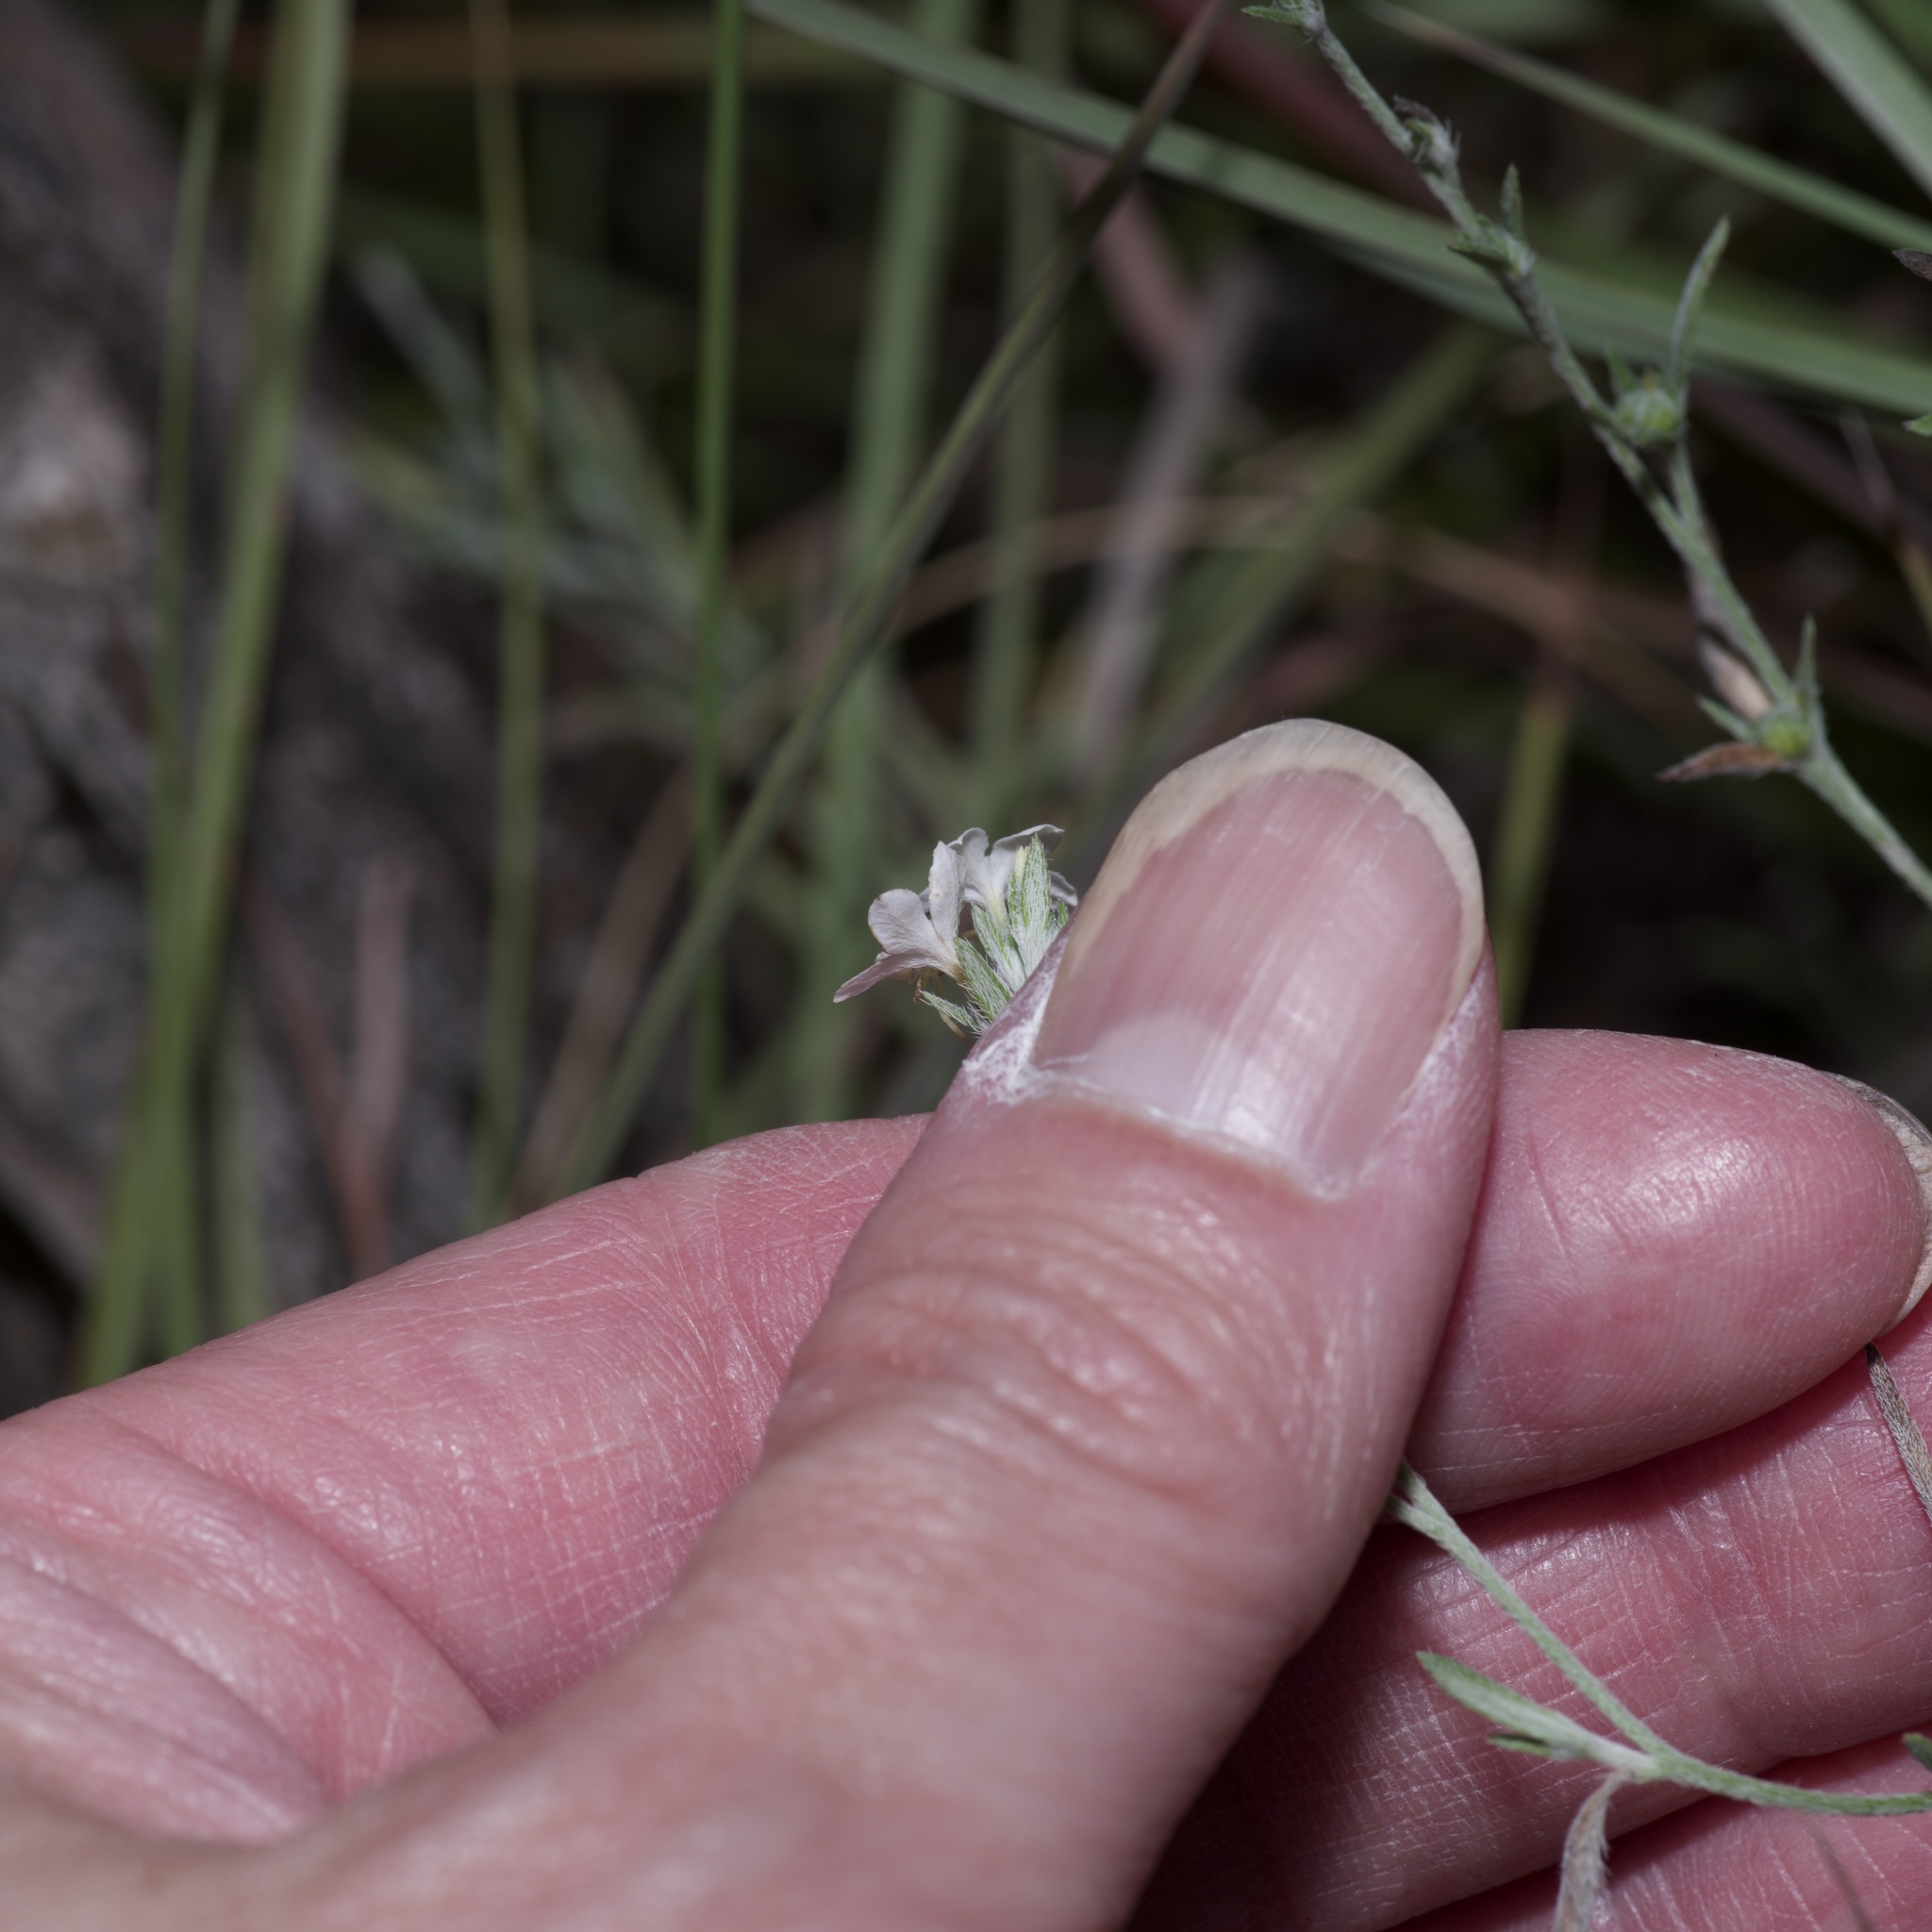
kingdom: Plantae
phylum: Tracheophyta
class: Magnoliopsida
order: Boraginales
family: Heliotropiaceae
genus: Euploca
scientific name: Euploca tenella
